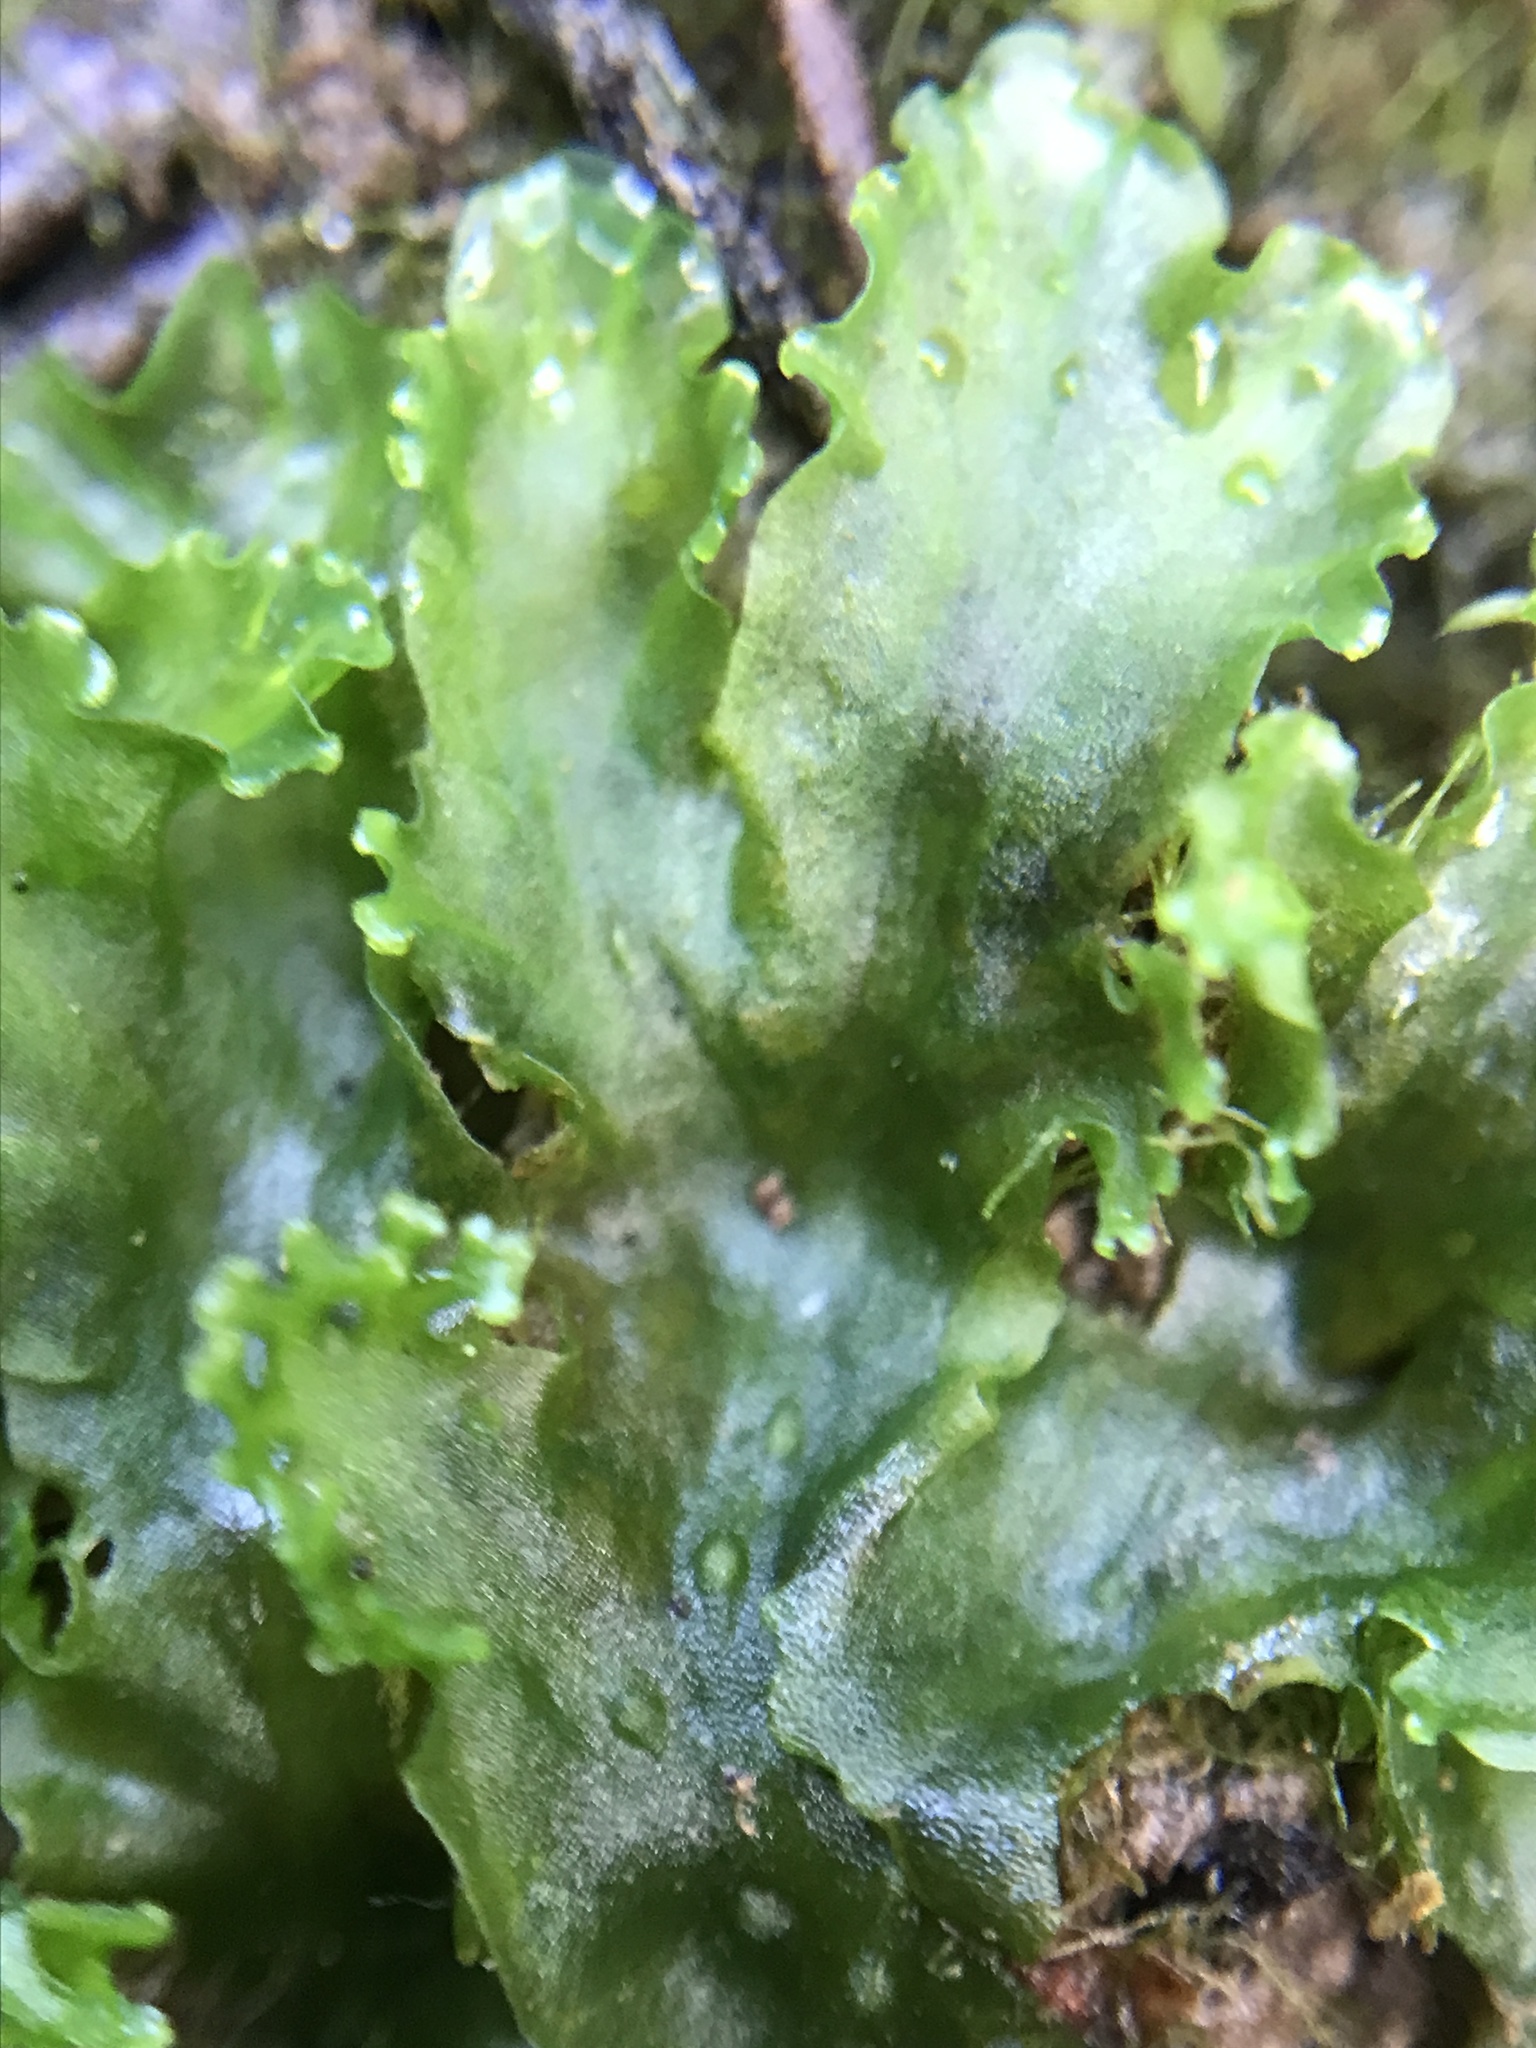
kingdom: Plantae
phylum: Marchantiophyta
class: Jungermanniopsida
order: Pelliales
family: Pelliaceae
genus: Apopellia
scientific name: Apopellia endiviifolia
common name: Endive pellia
